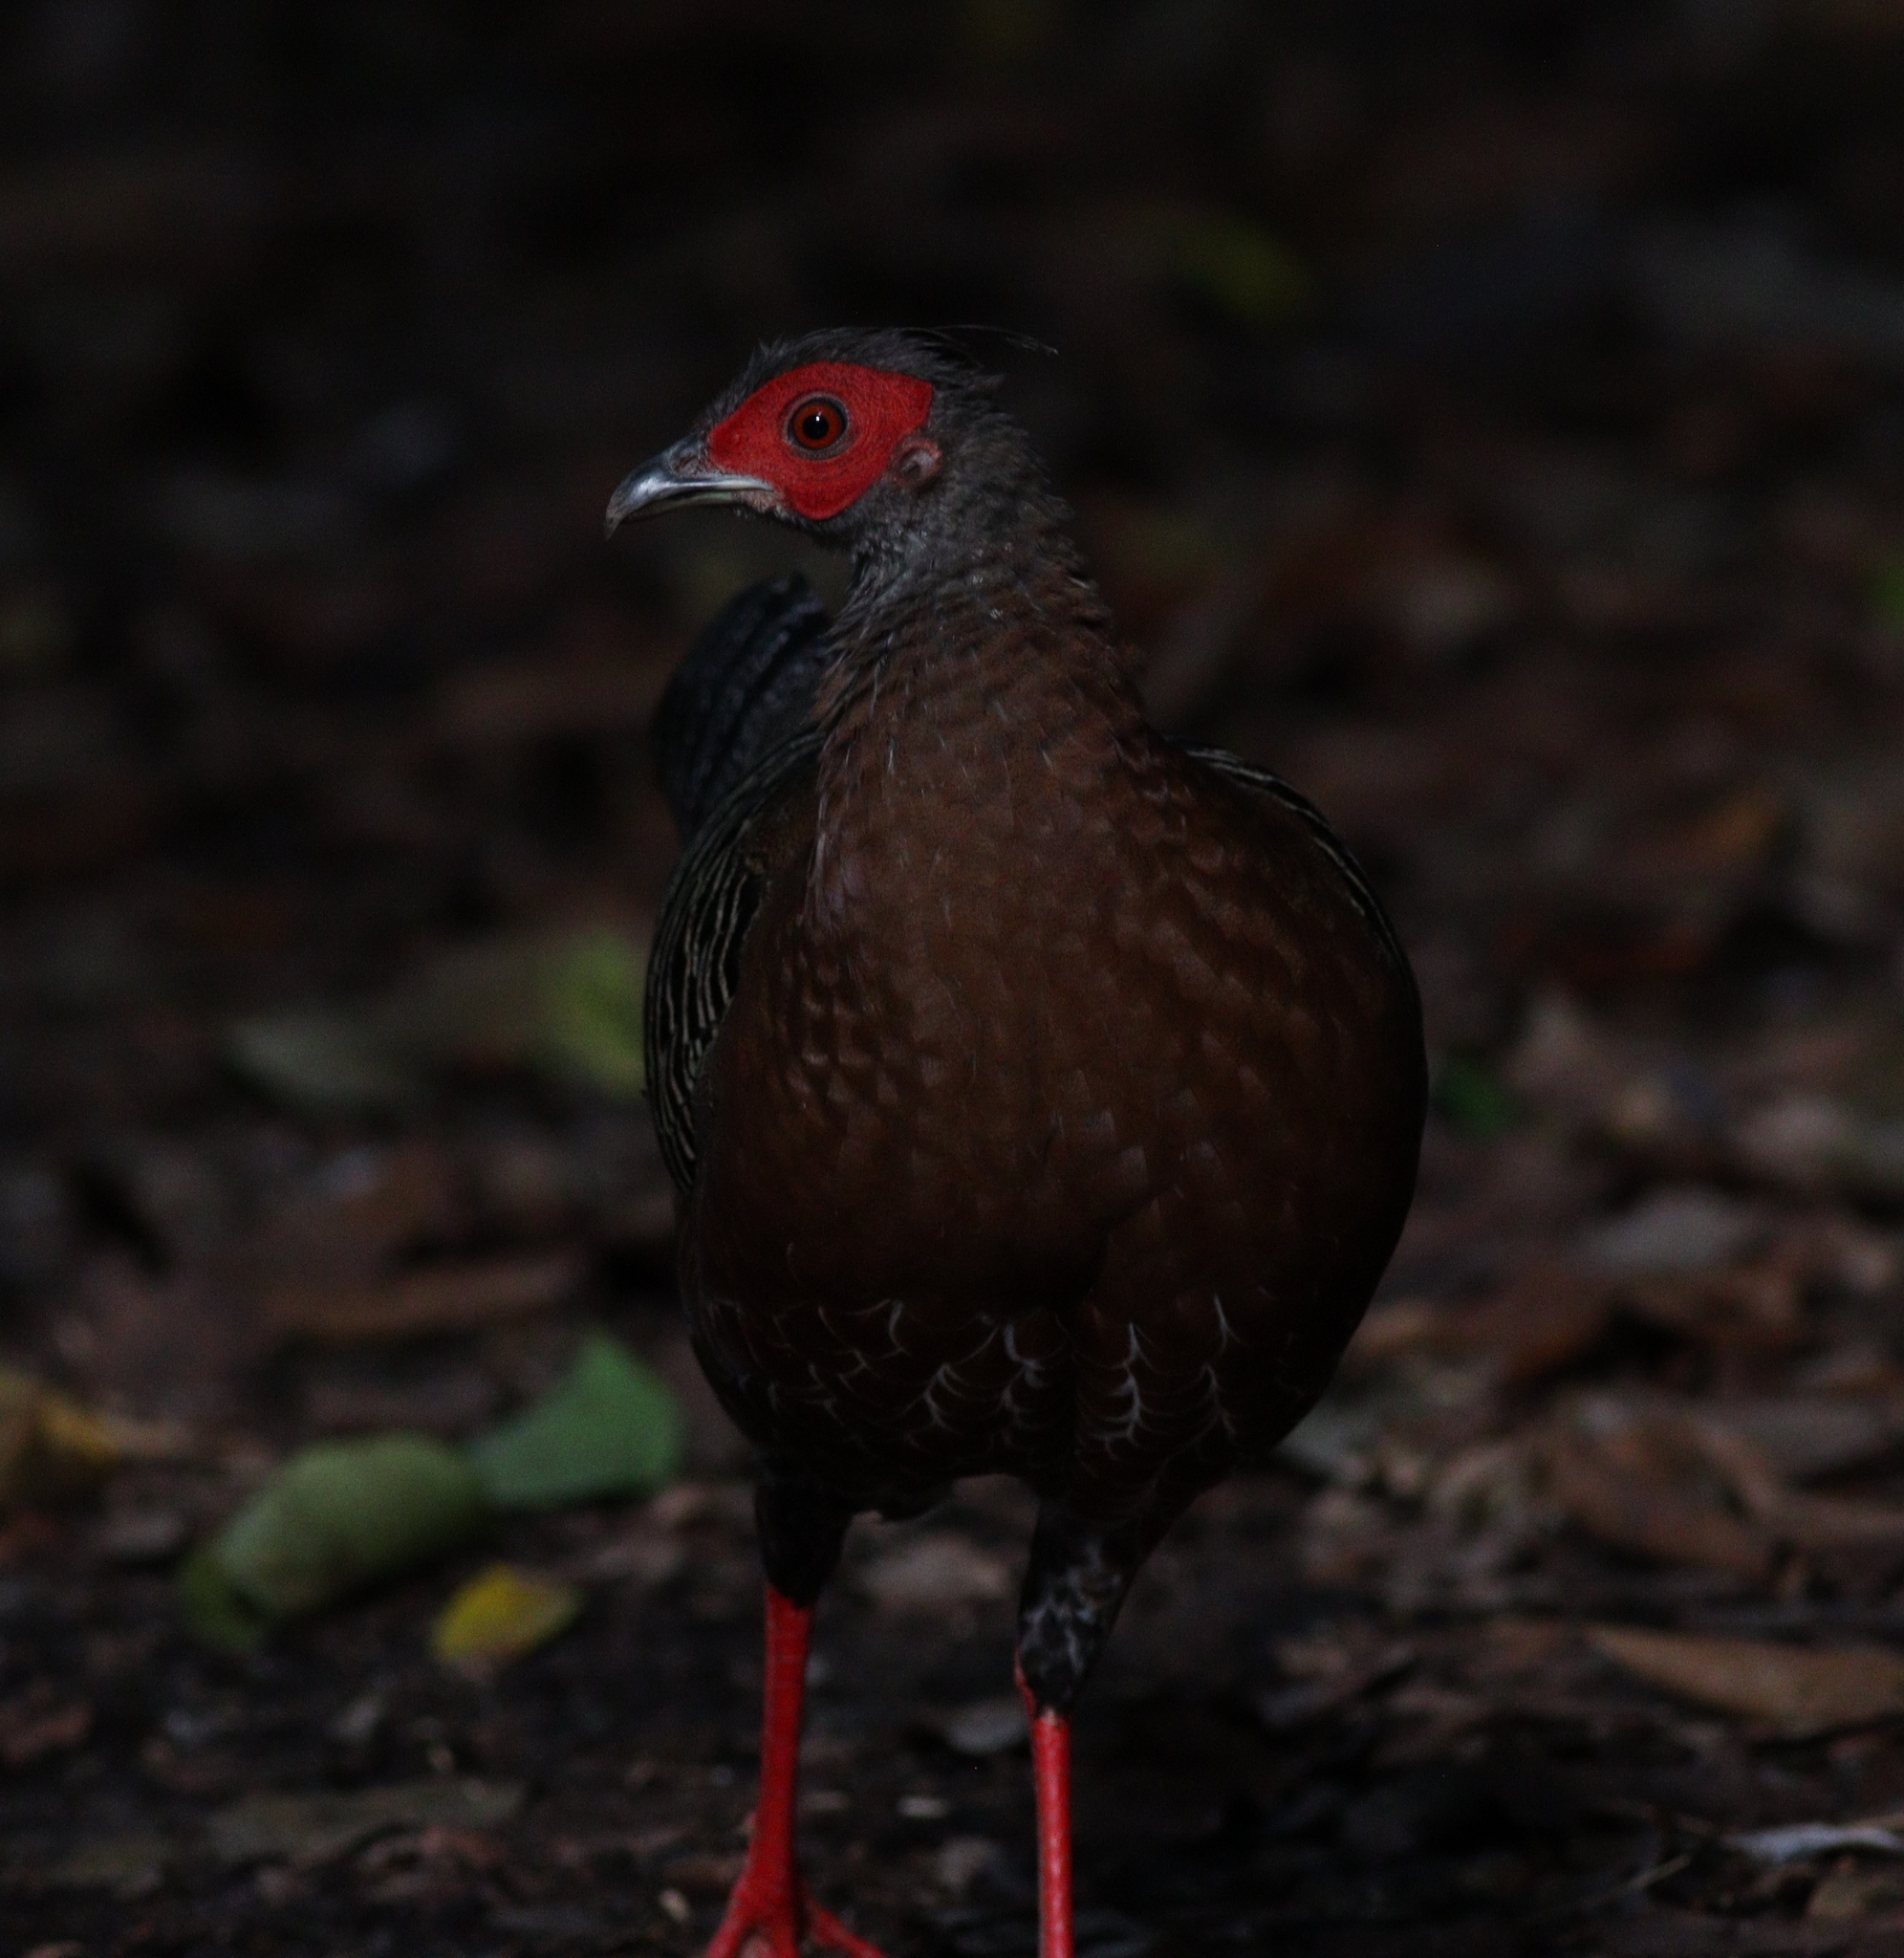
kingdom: Animalia
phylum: Chordata
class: Aves
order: Galliformes
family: Phasianidae
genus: Lophura
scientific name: Lophura diardi
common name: Siamese fireback
